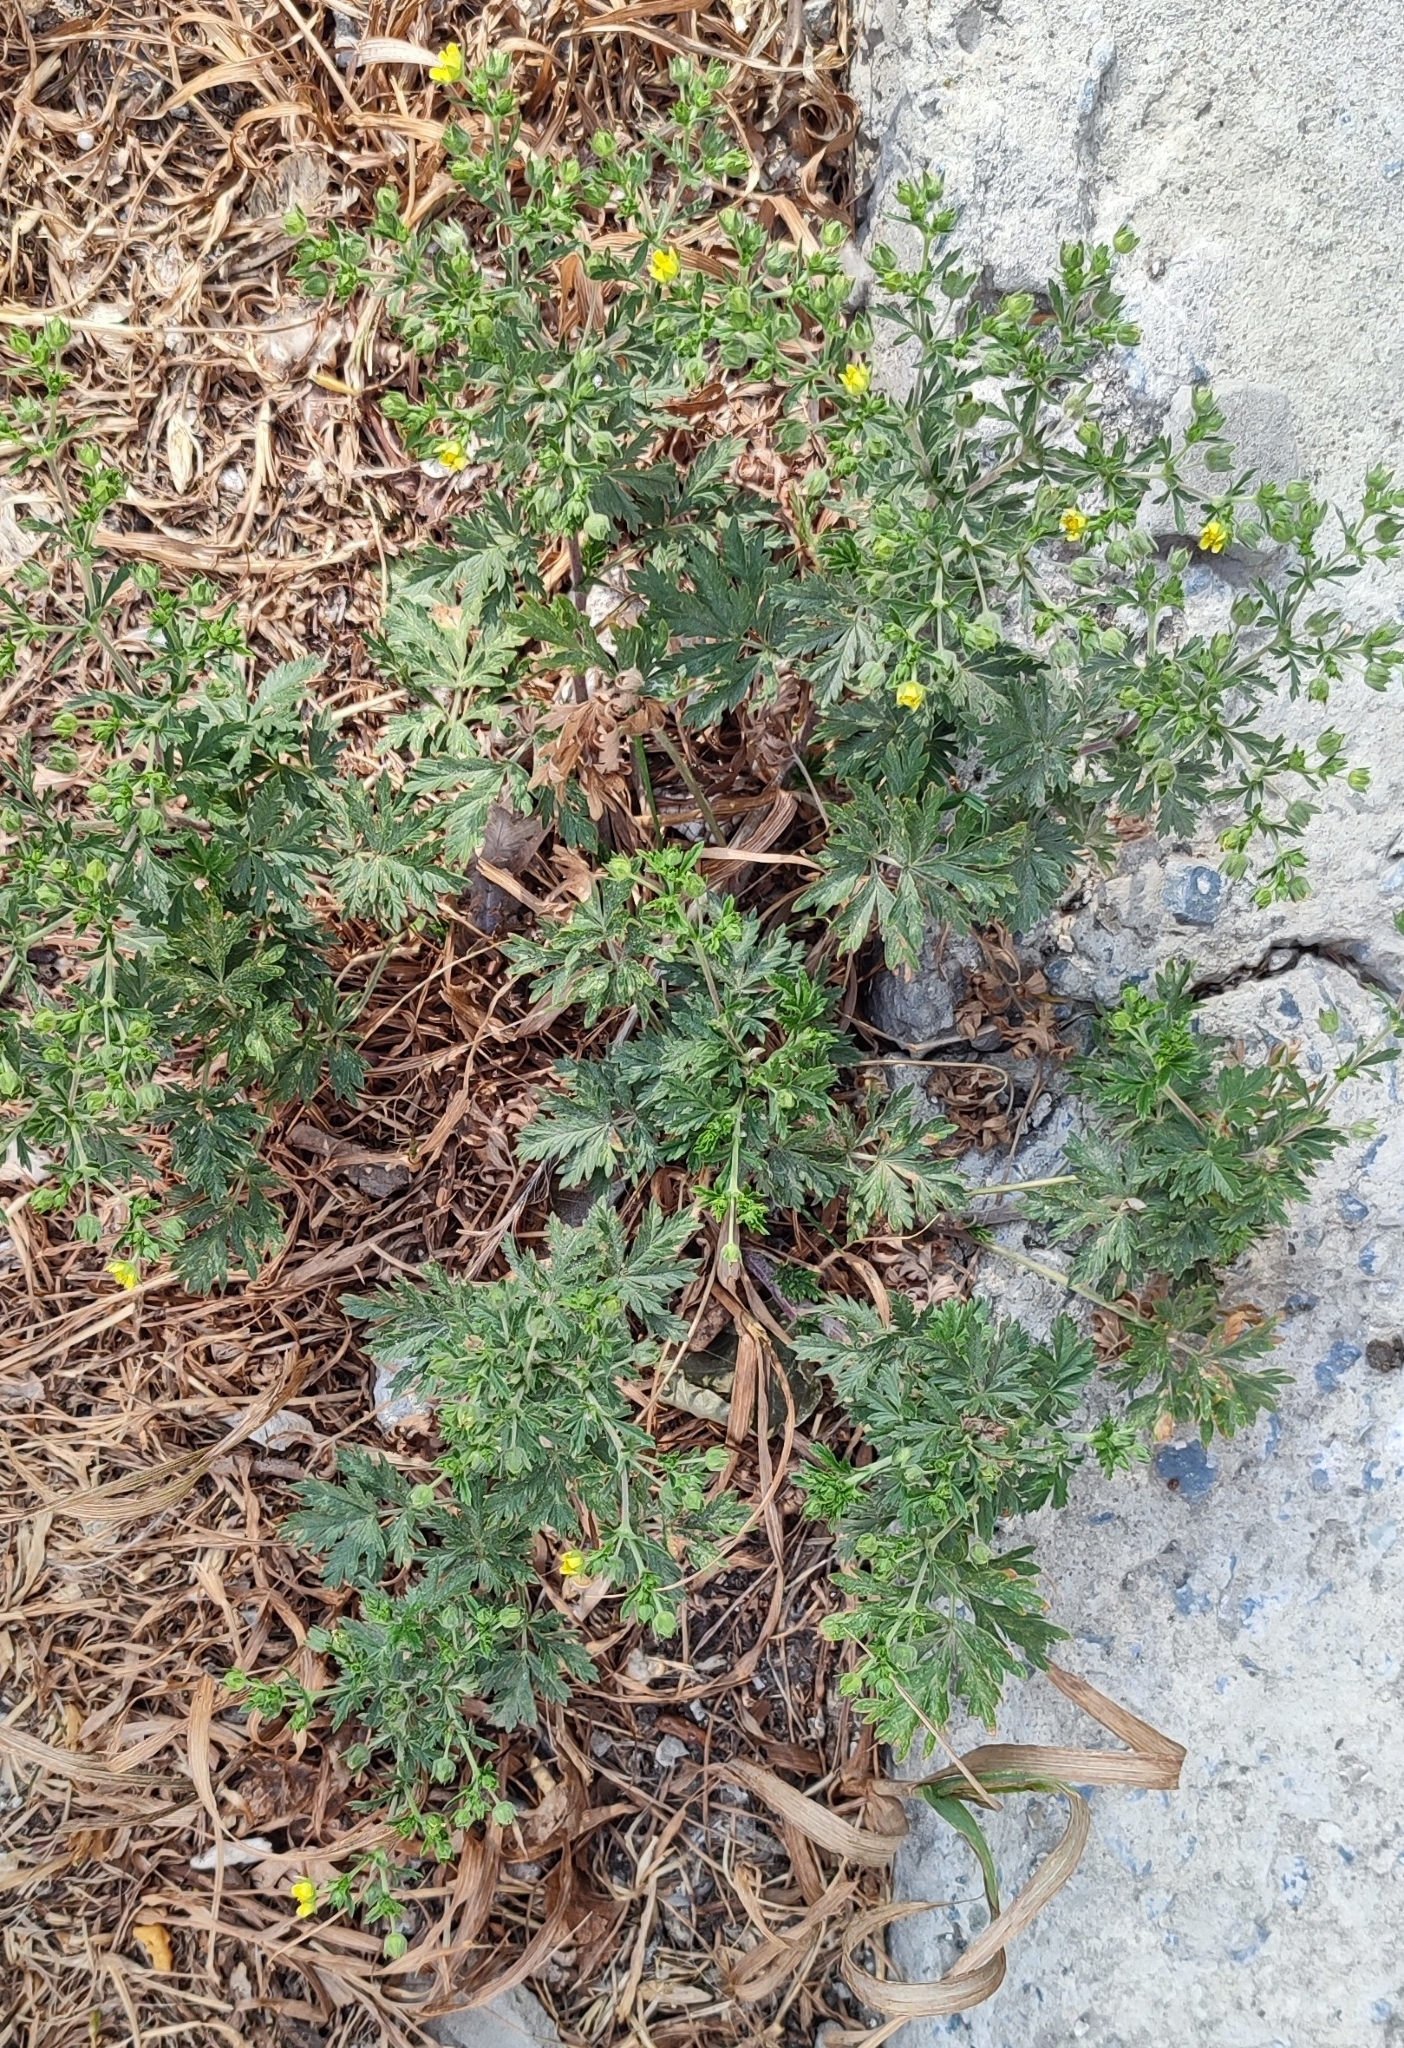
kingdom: Plantae
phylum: Tracheophyta
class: Magnoliopsida
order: Rosales
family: Rosaceae
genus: Potentilla
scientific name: Potentilla tobolensis
